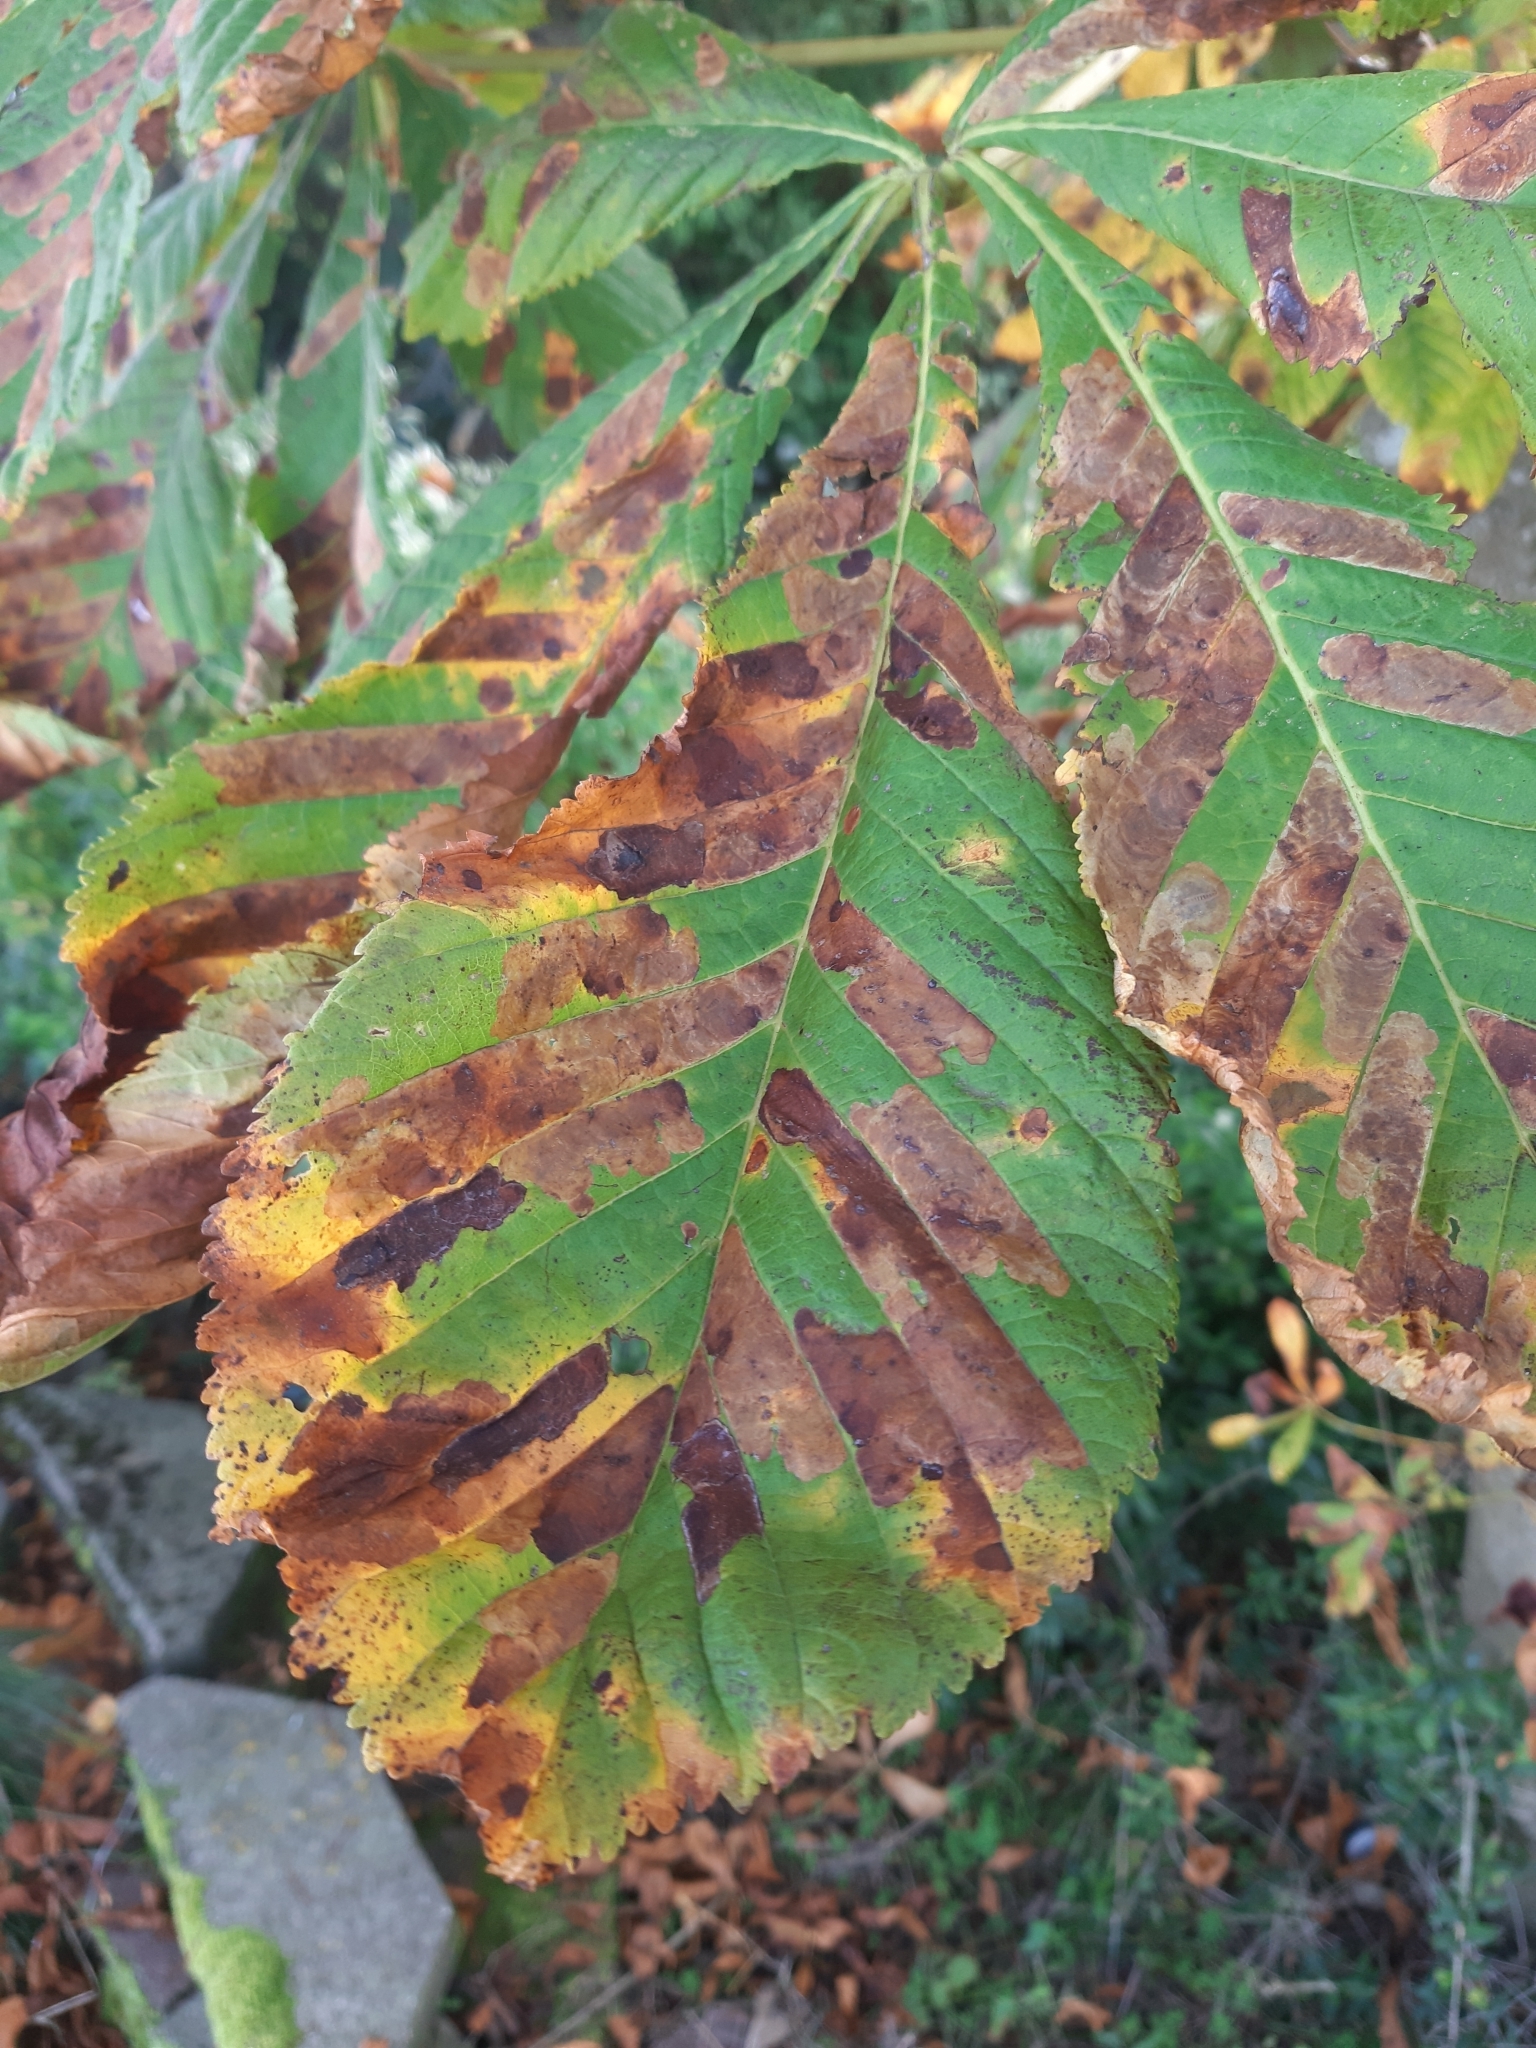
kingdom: Animalia
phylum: Arthropoda
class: Insecta
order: Lepidoptera
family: Gracillariidae
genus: Cameraria
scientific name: Cameraria ohridella
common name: Horse-chestnut leaf-miner
